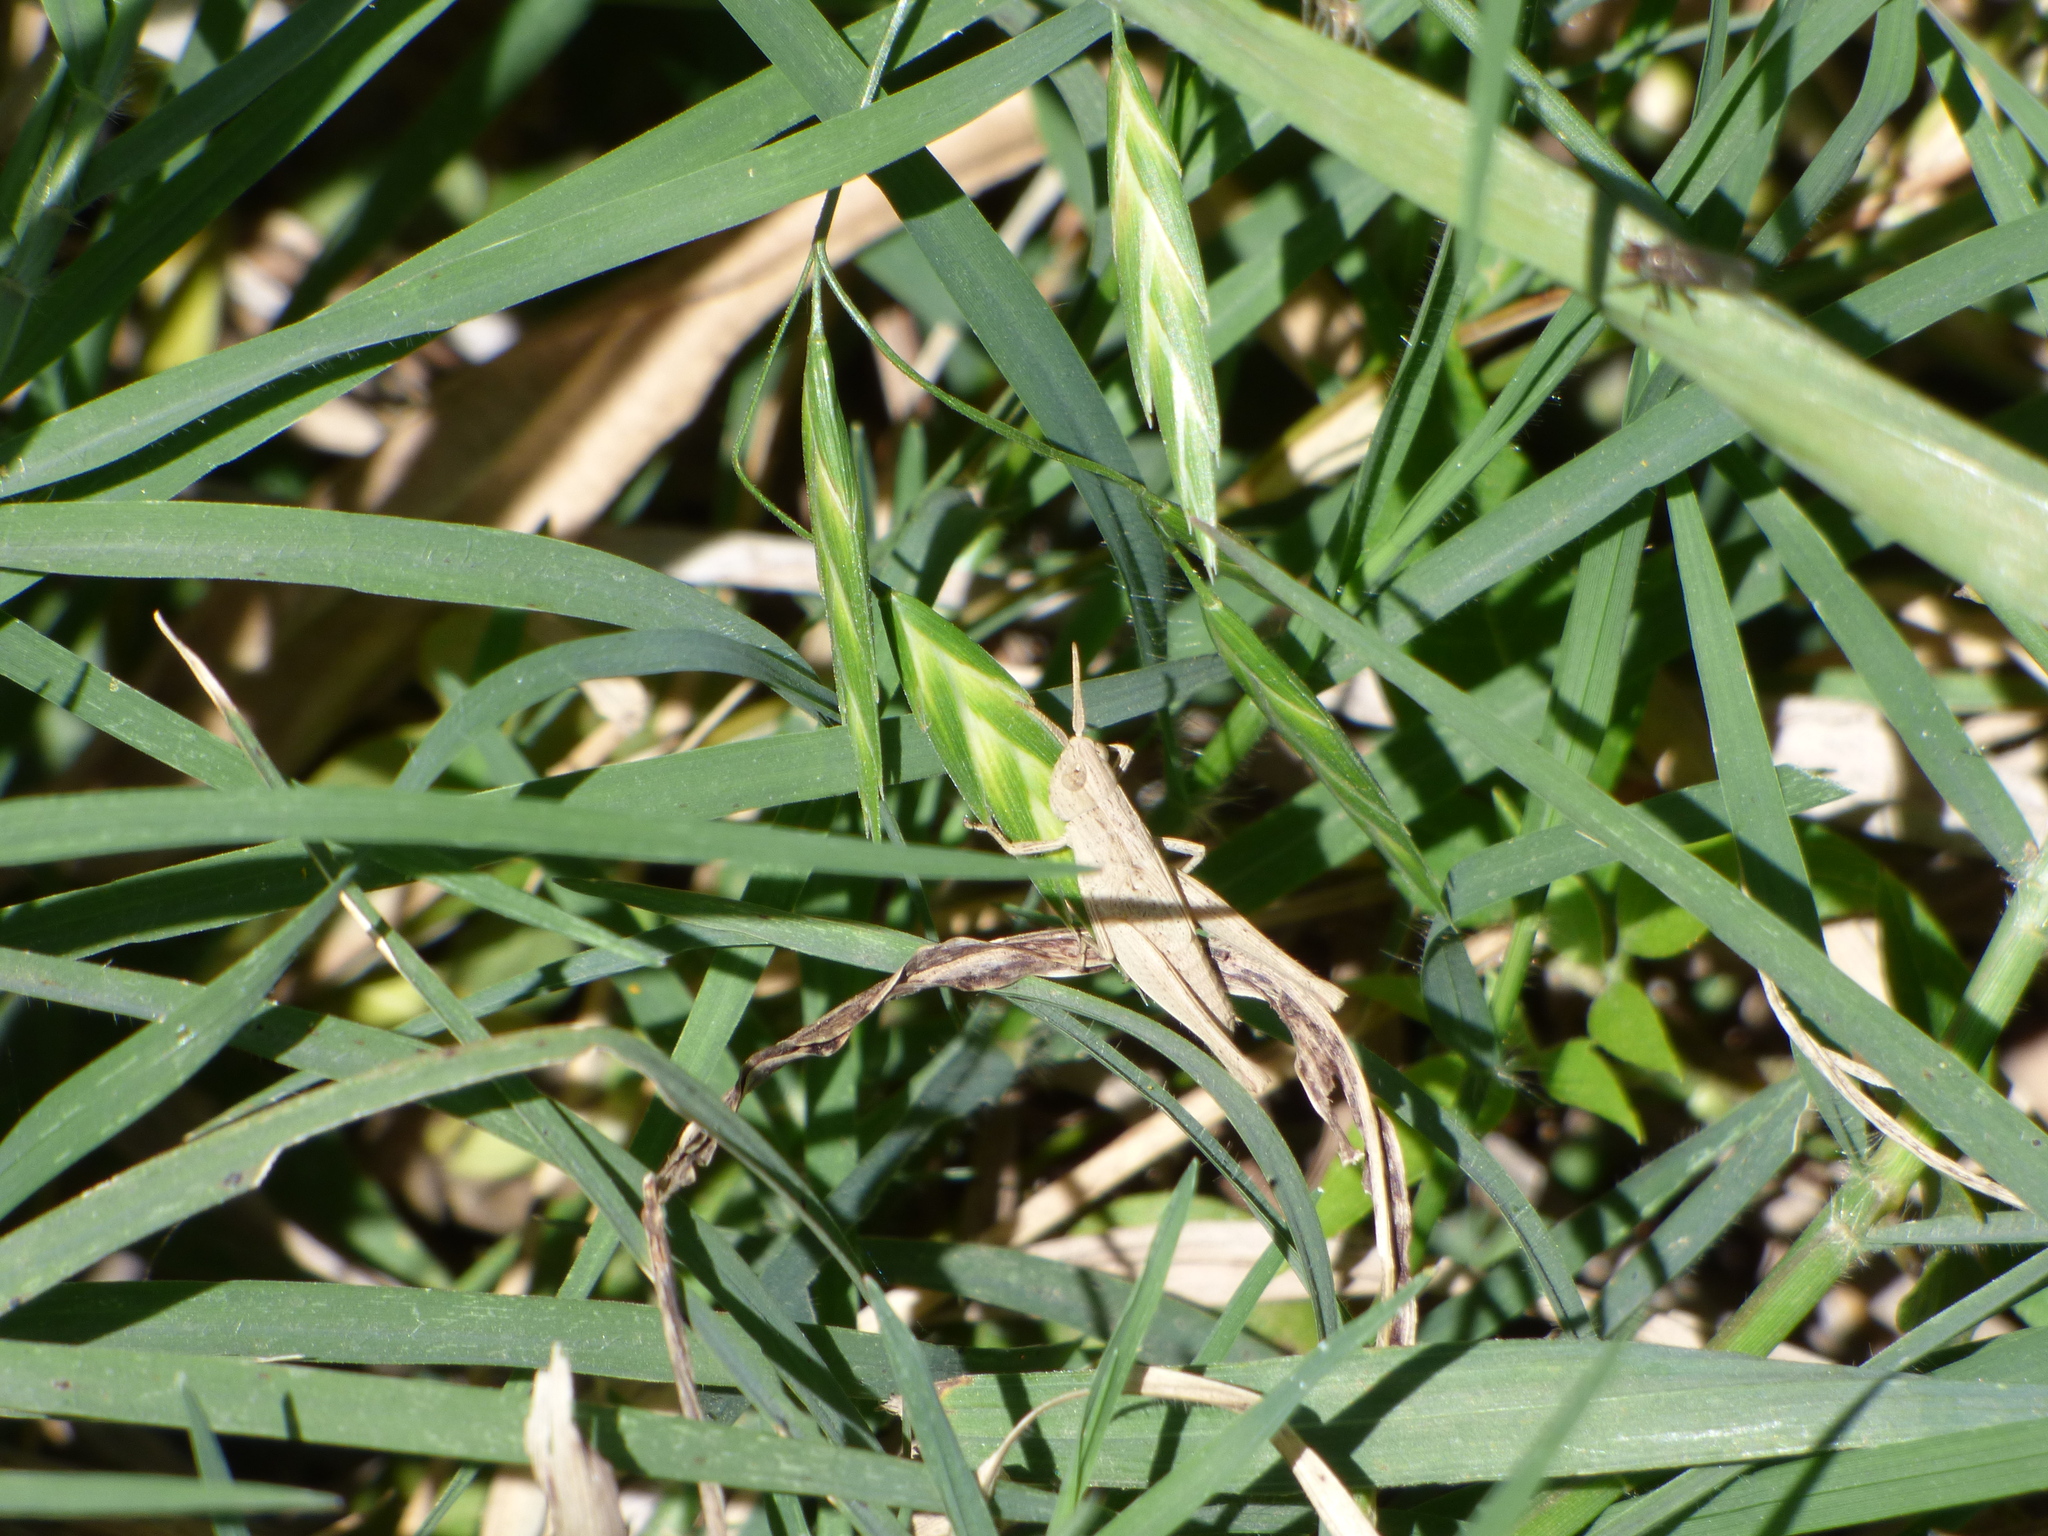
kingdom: Animalia
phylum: Arthropoda
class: Insecta
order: Orthoptera
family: Acrididae
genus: Eutryxalis
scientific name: Eutryxalis filata
